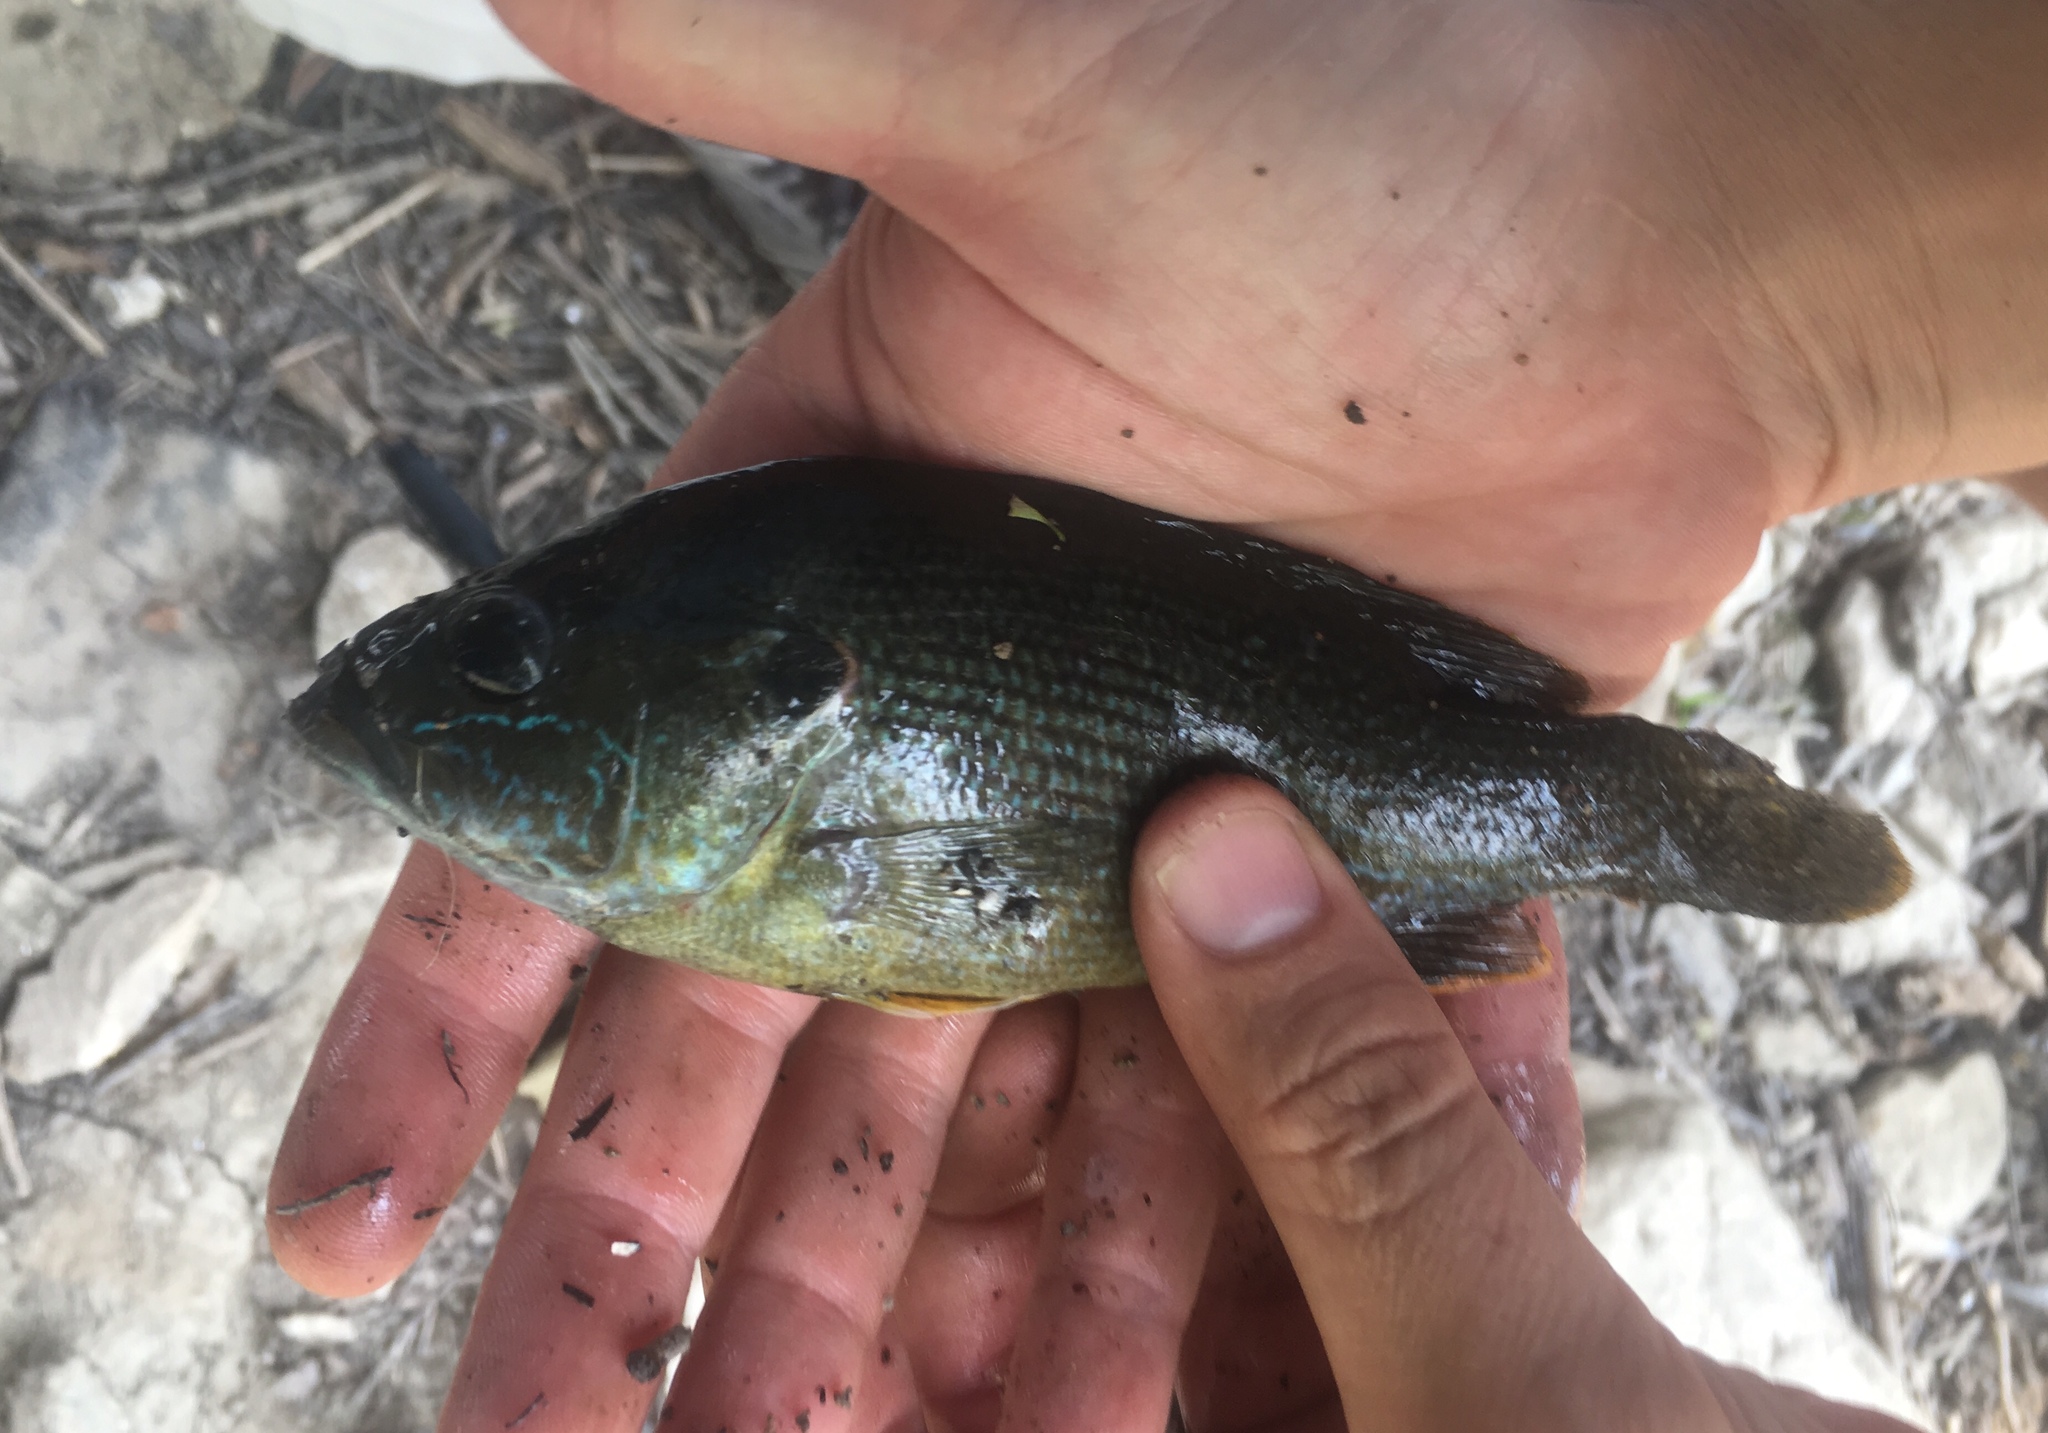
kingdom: Animalia
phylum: Chordata
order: Perciformes
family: Centrarchidae
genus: Lepomis
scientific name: Lepomis cyanellus
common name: Green sunfish
